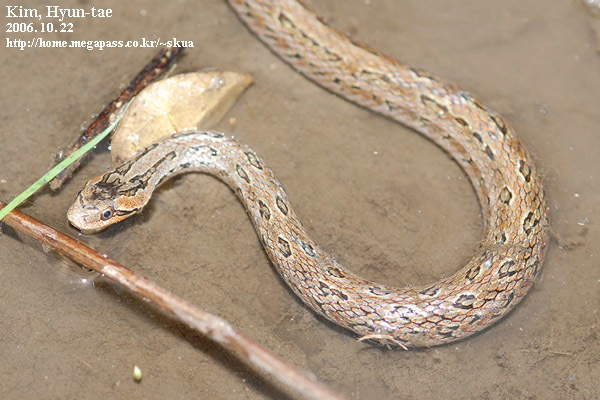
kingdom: Animalia
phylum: Chordata
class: Squamata
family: Colubridae
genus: Oocatochus
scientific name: Oocatochus rufodorsatus
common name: Frog-eating rat snake
